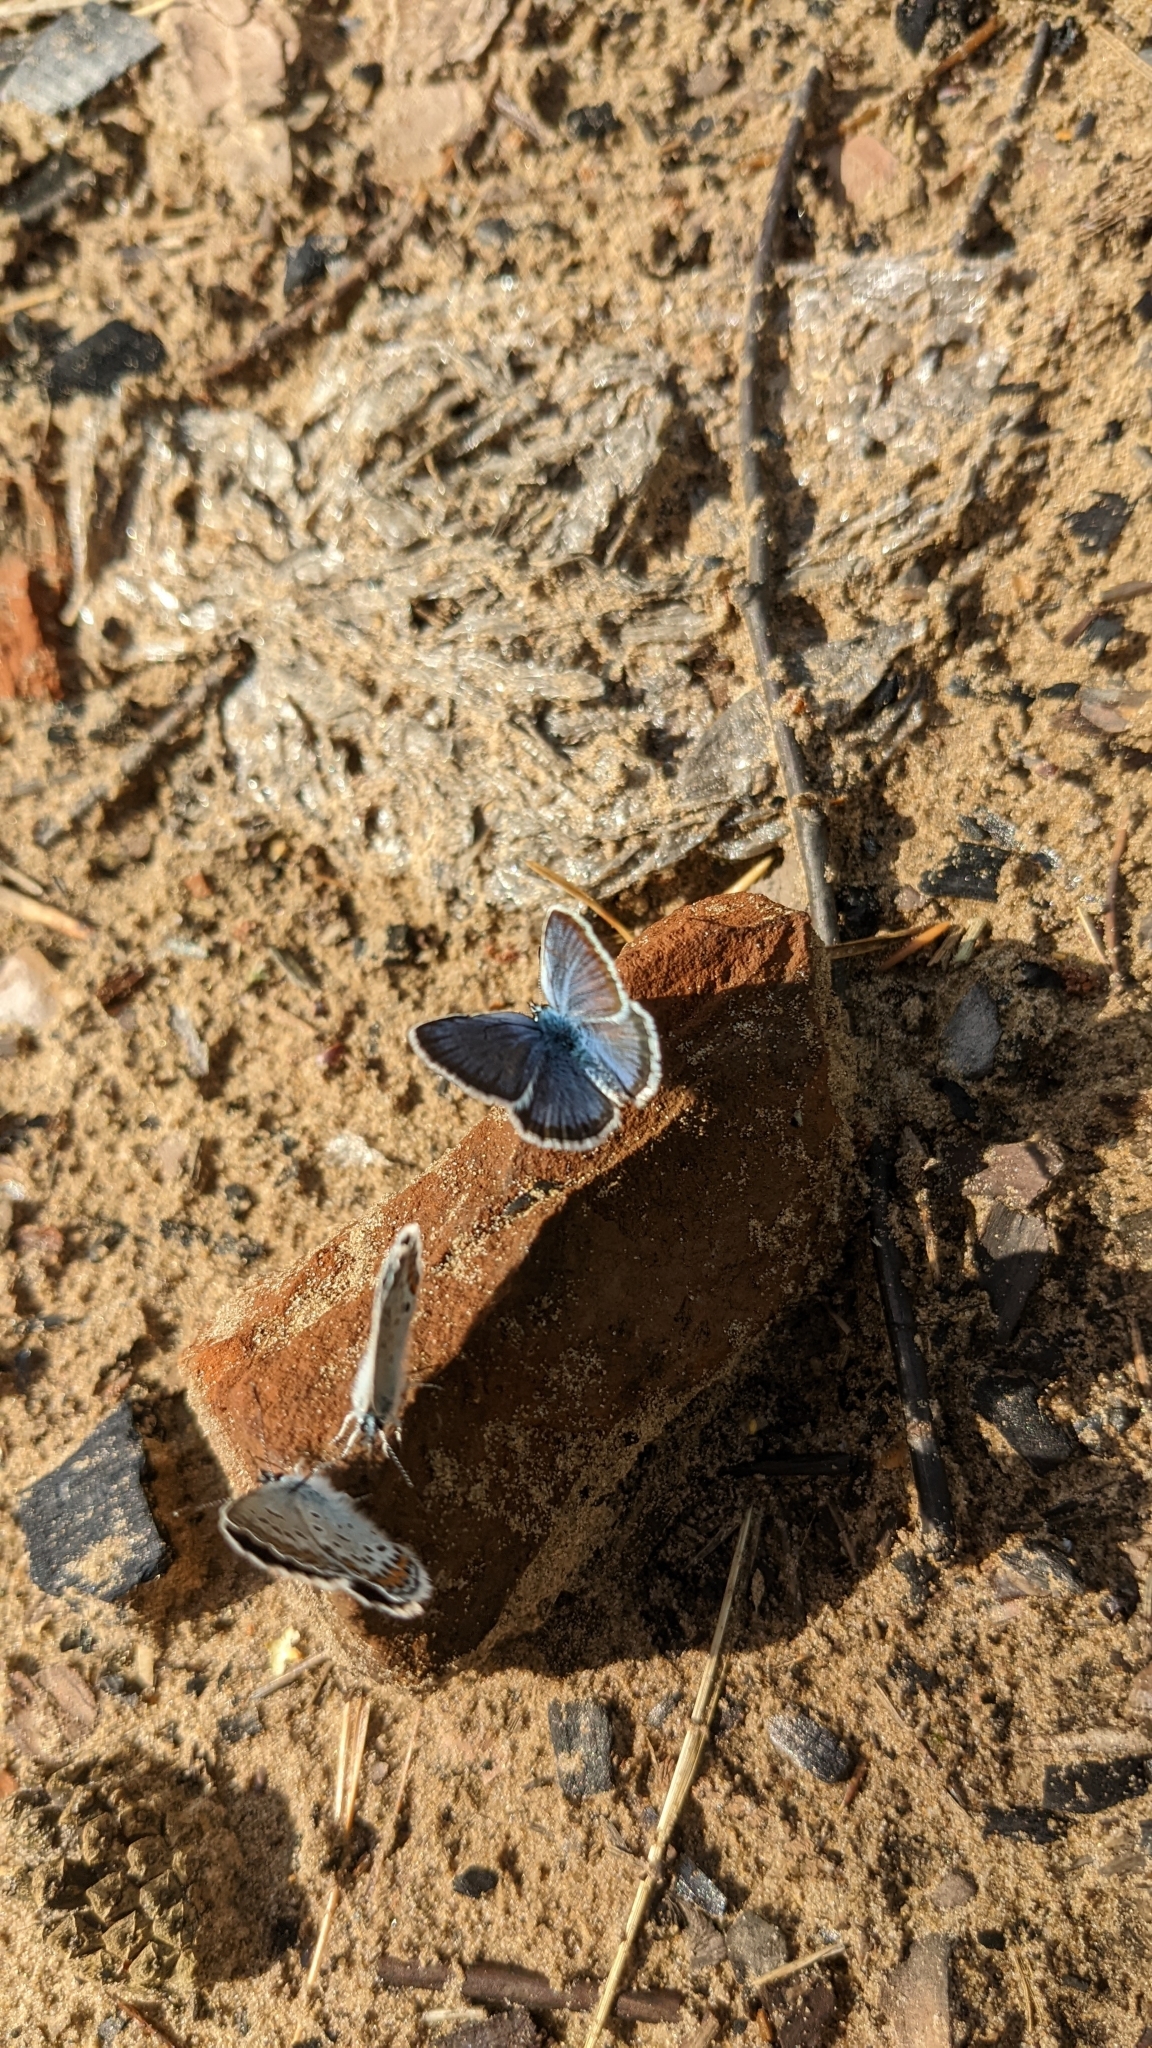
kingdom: Animalia
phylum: Arthropoda
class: Insecta
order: Lepidoptera
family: Lycaenidae
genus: Plebejus
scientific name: Plebejus argus
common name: Silver-studded blue
